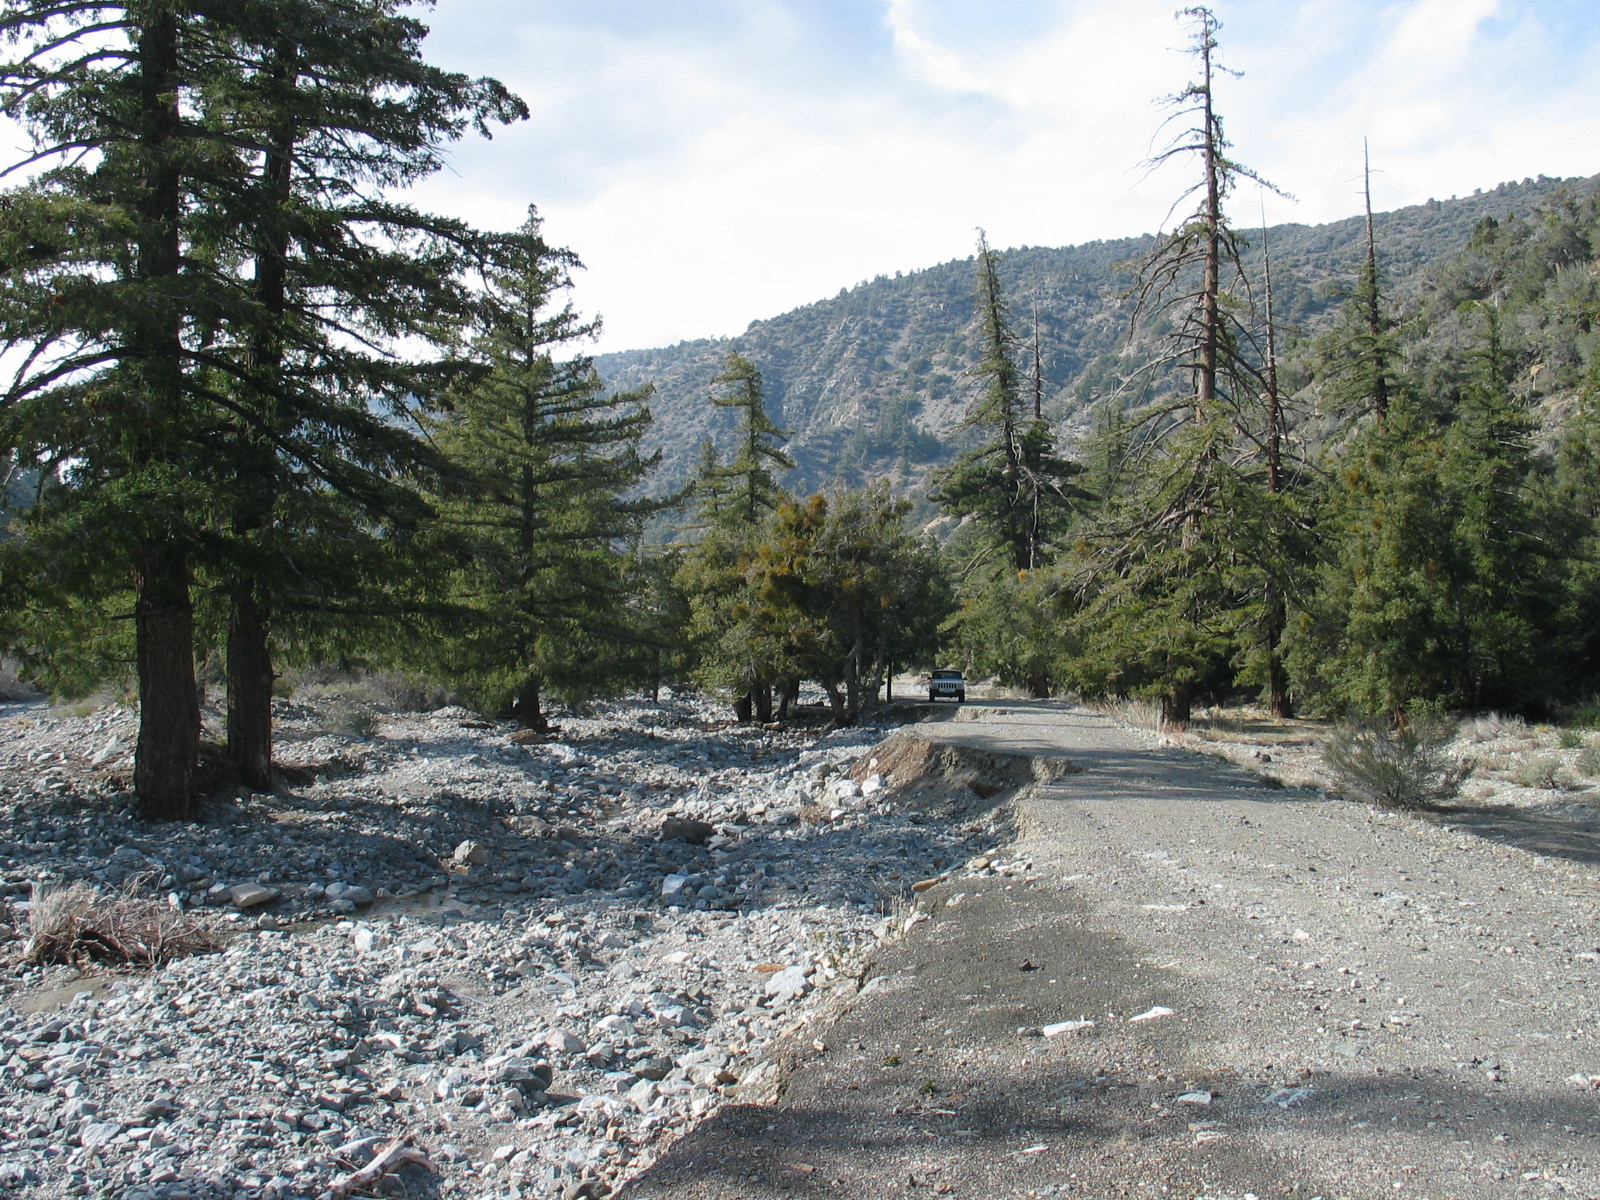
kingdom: Plantae
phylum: Tracheophyta
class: Pinopsida
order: Pinales
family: Pinaceae
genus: Pseudotsuga
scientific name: Pseudotsuga macrocarpa
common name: Big-cone douglas-fir
